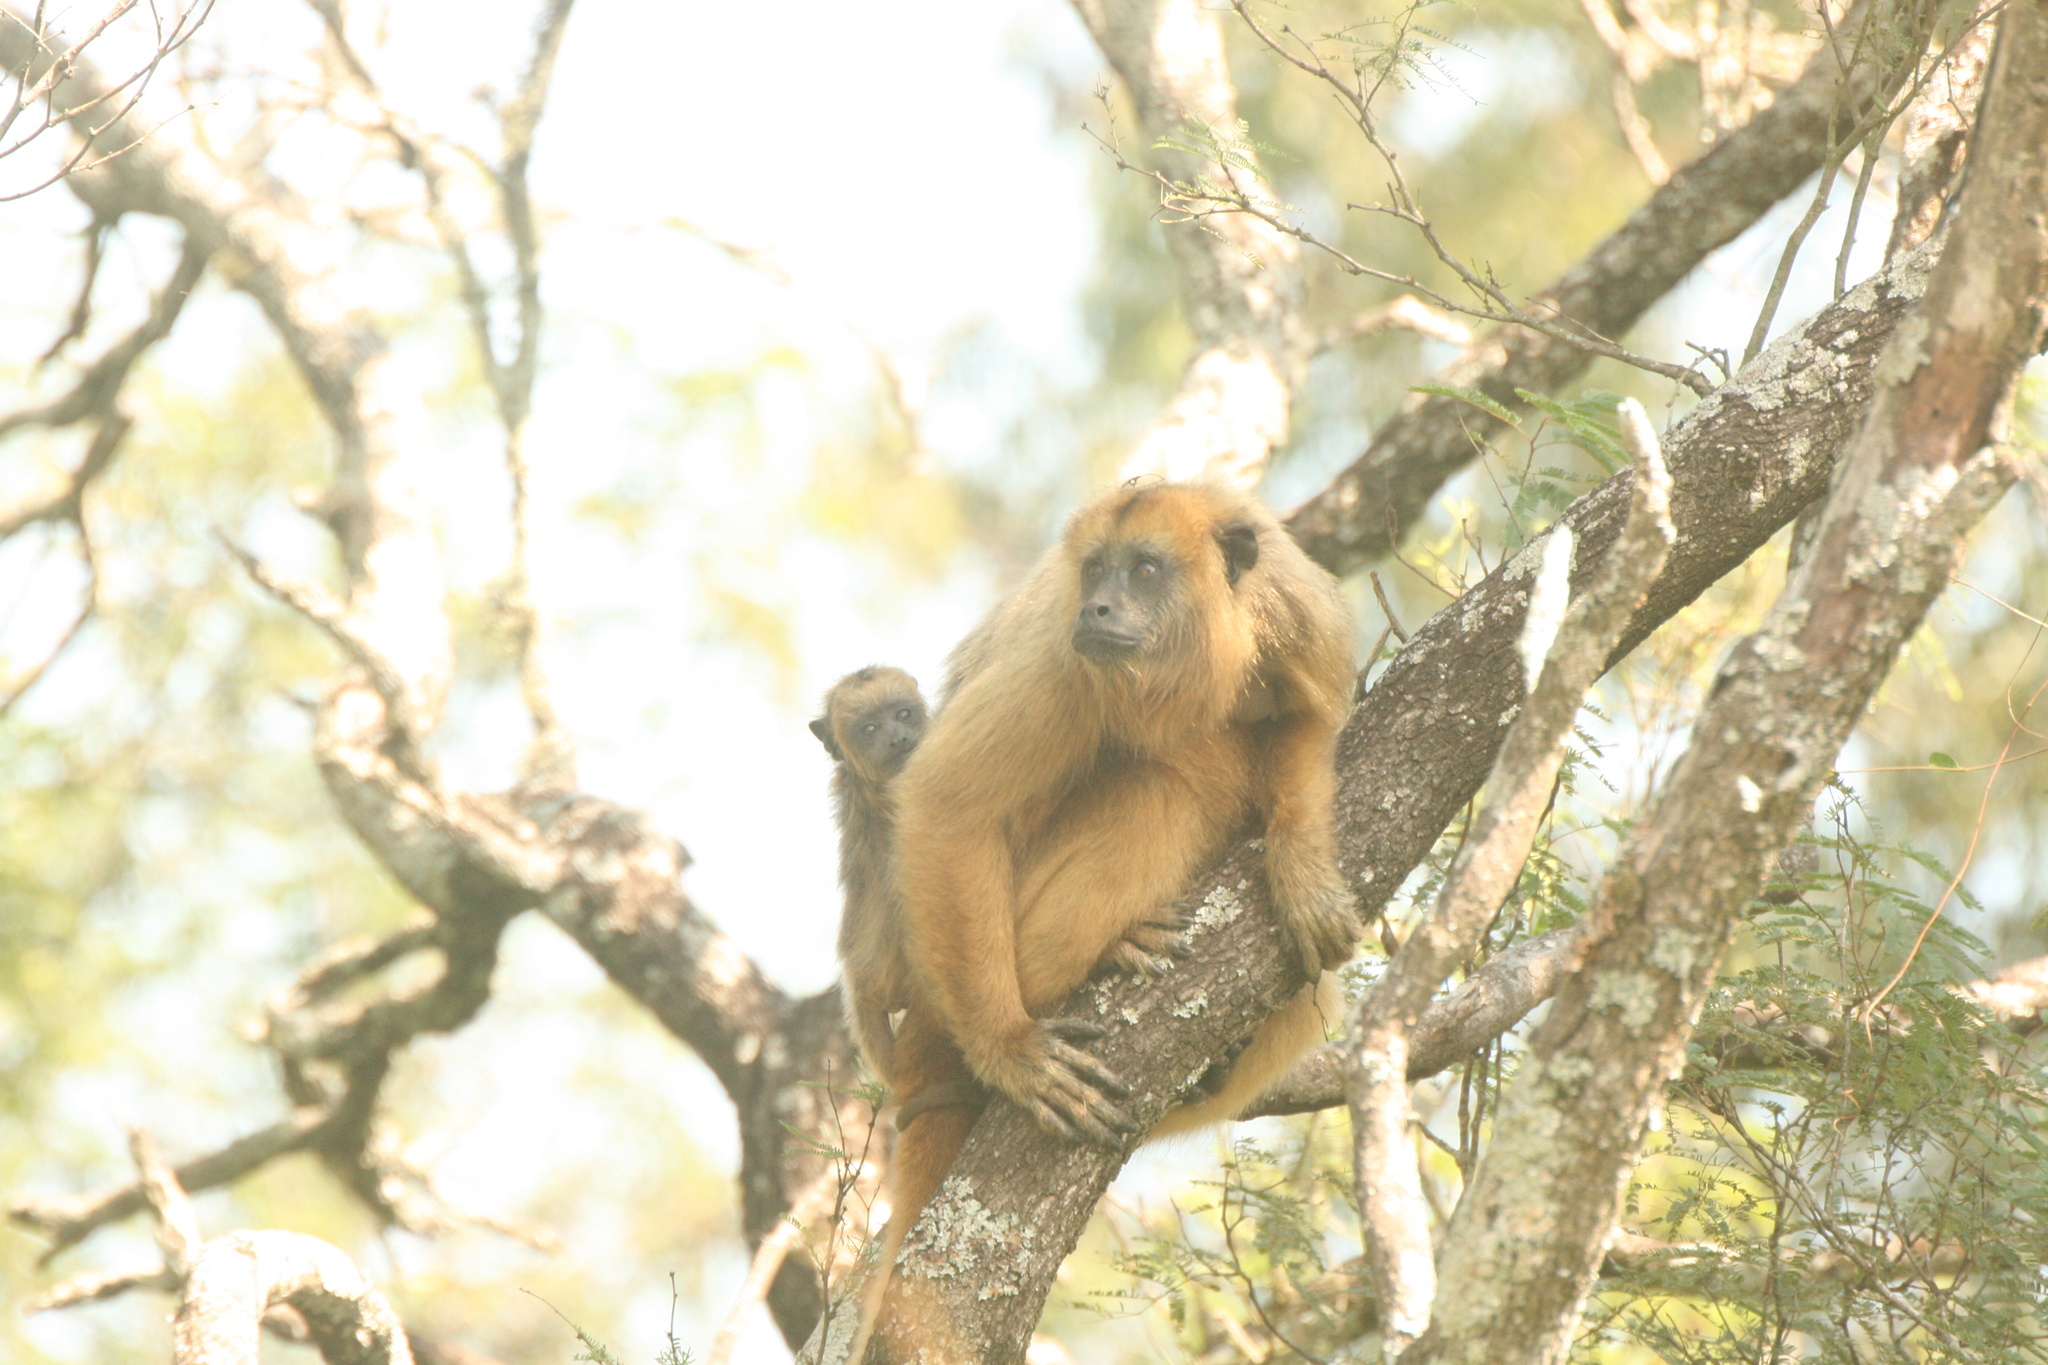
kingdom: Animalia
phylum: Chordata
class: Mammalia
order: Primates
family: Atelidae
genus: Alouatta
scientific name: Alouatta caraya
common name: Black howler
